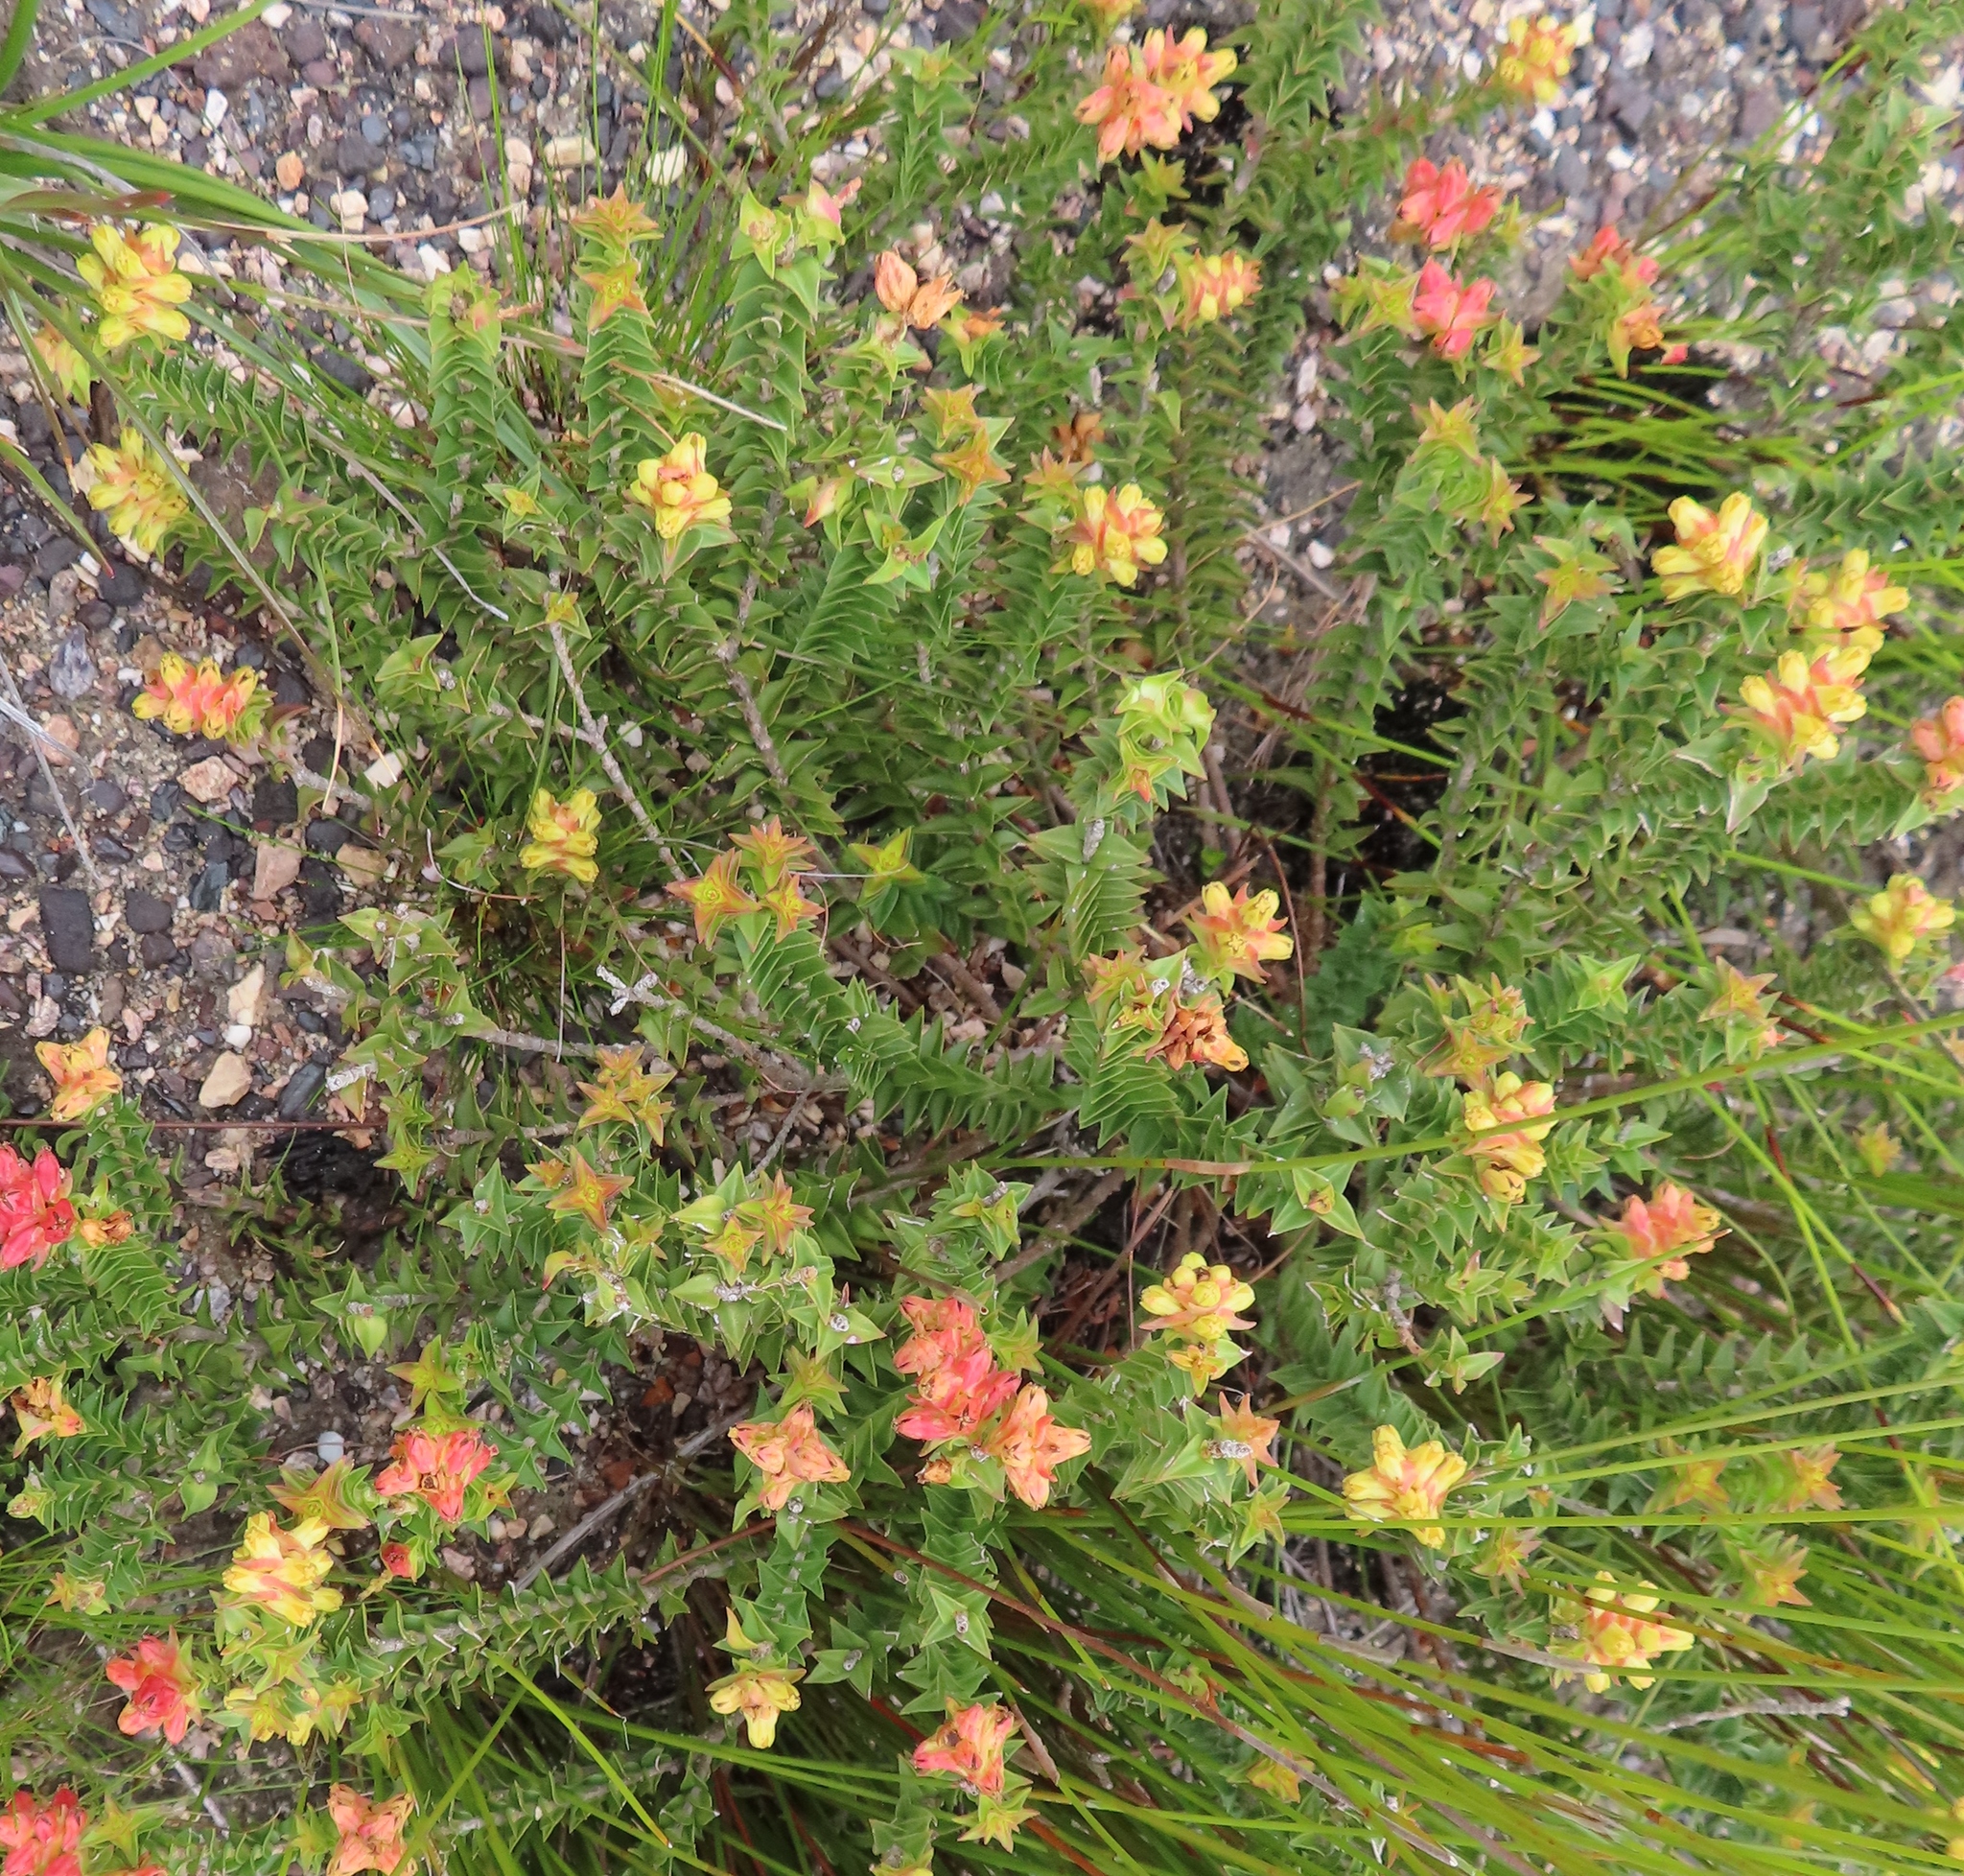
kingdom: Plantae
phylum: Tracheophyta
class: Magnoliopsida
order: Myrtales
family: Penaeaceae
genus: Penaea
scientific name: Penaea mucronata
